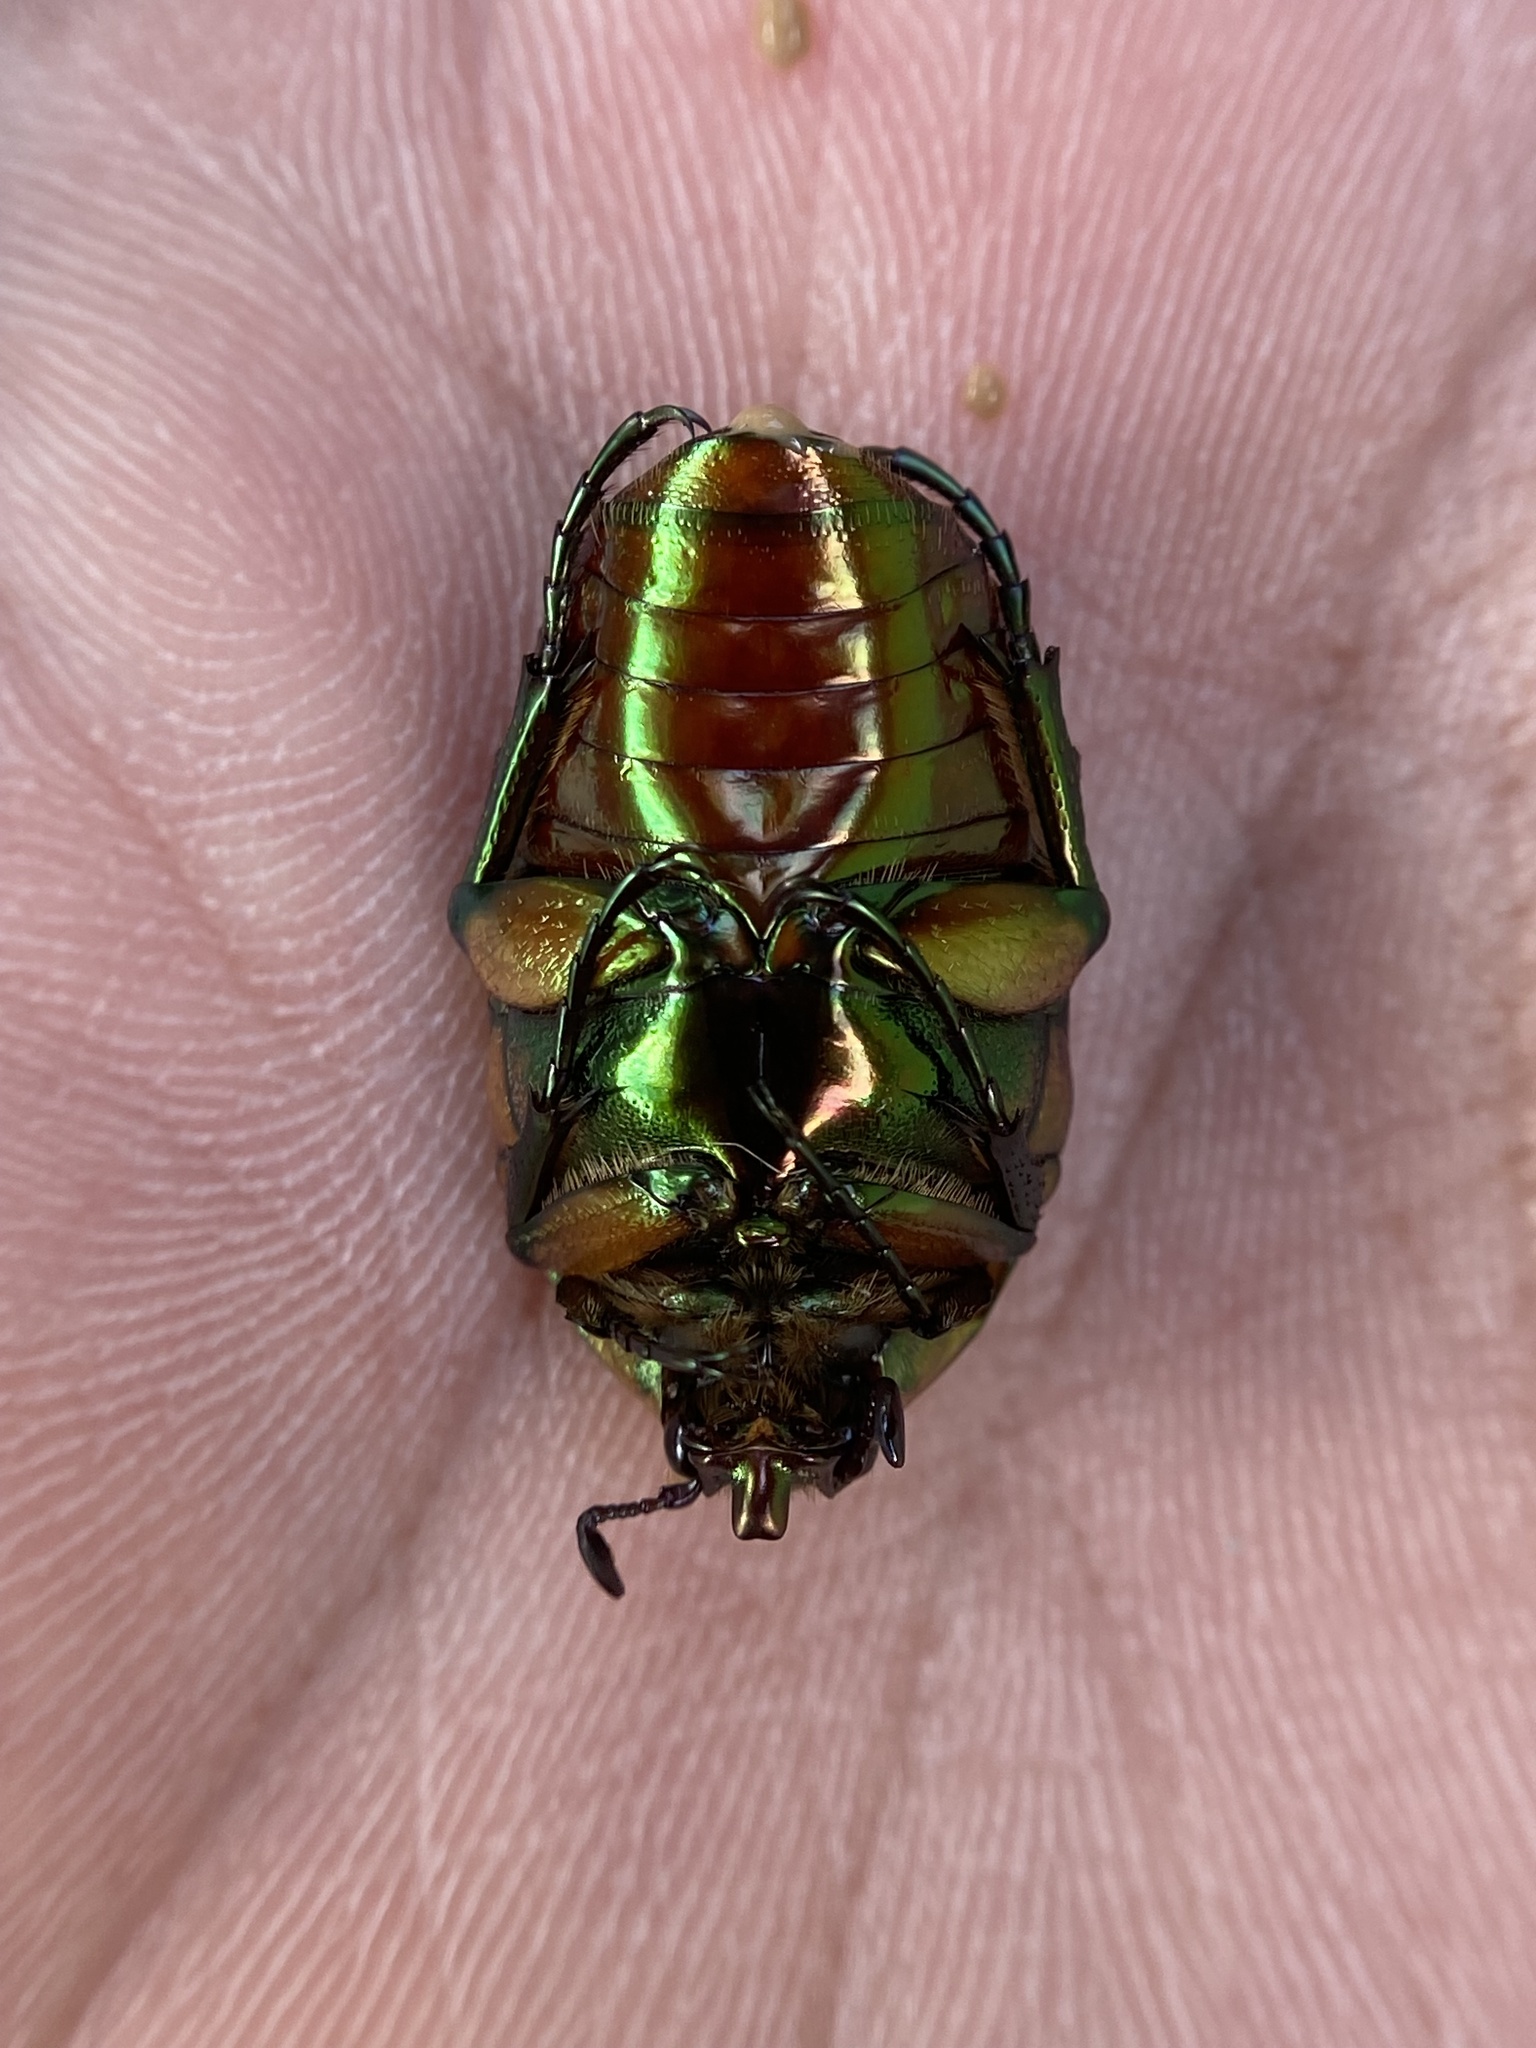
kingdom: Animalia
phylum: Arthropoda
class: Insecta
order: Coleoptera
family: Scarabaeidae
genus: Cotinis
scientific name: Cotinis nitida
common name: Common green june beetle
